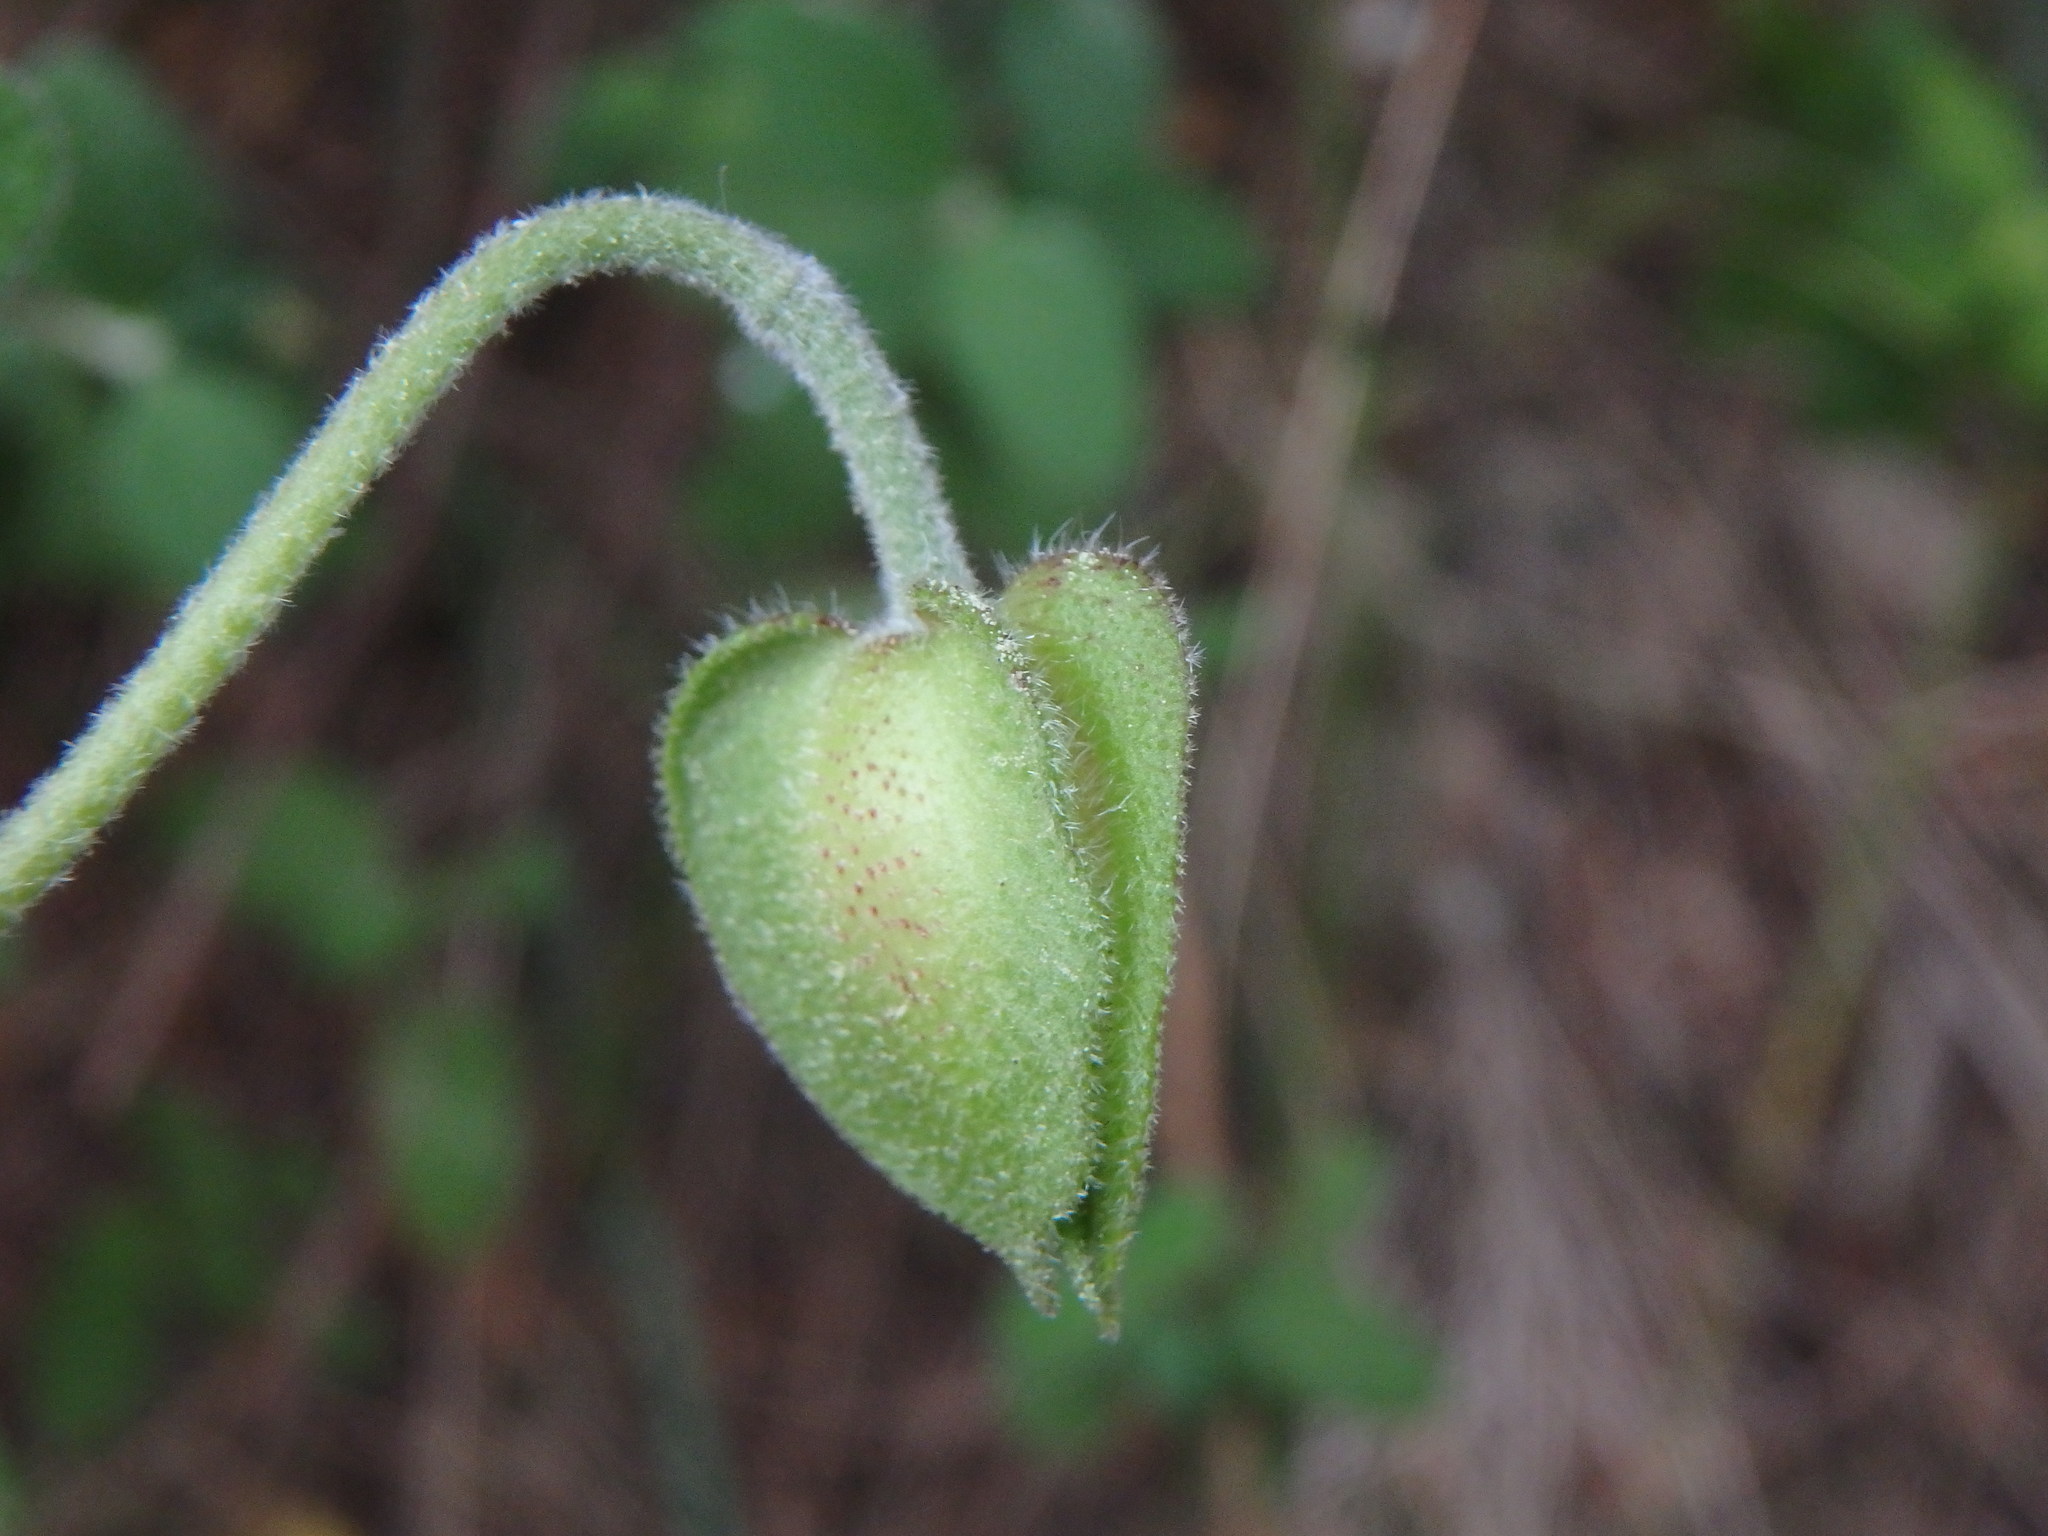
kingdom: Plantae
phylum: Tracheophyta
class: Magnoliopsida
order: Malvales
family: Cistaceae
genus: Cistus
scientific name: Cistus salviifolius
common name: Salvia cistus
